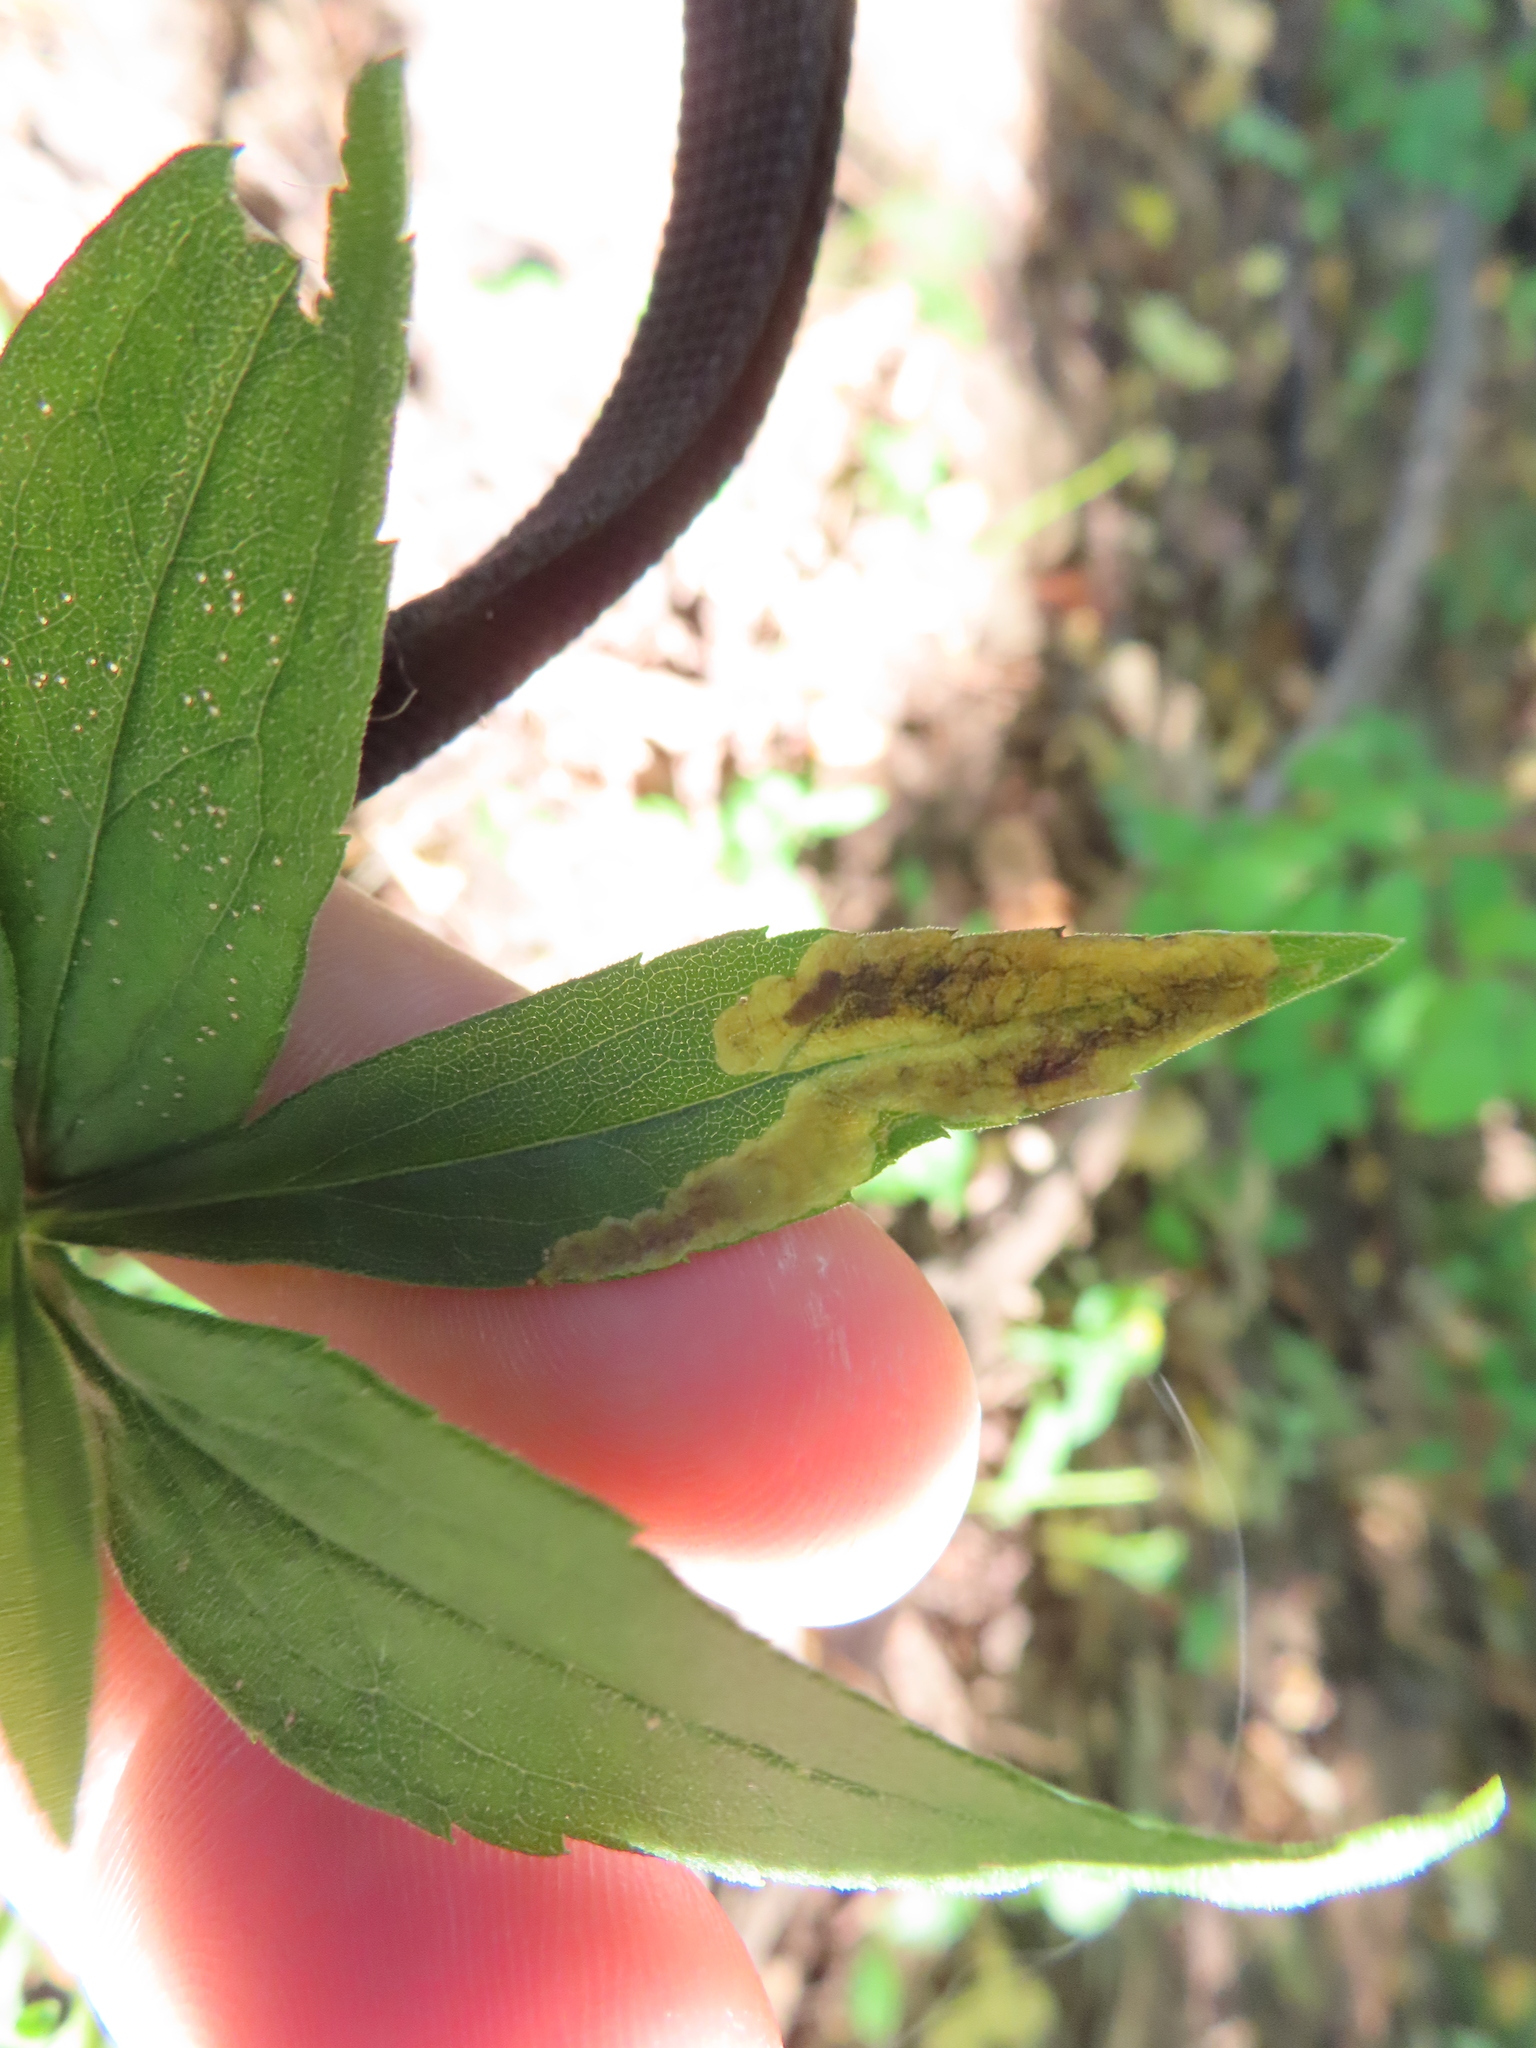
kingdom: Animalia
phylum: Arthropoda
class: Insecta
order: Diptera
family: Agromyzidae
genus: Nemorimyza
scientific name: Nemorimyza posticata
